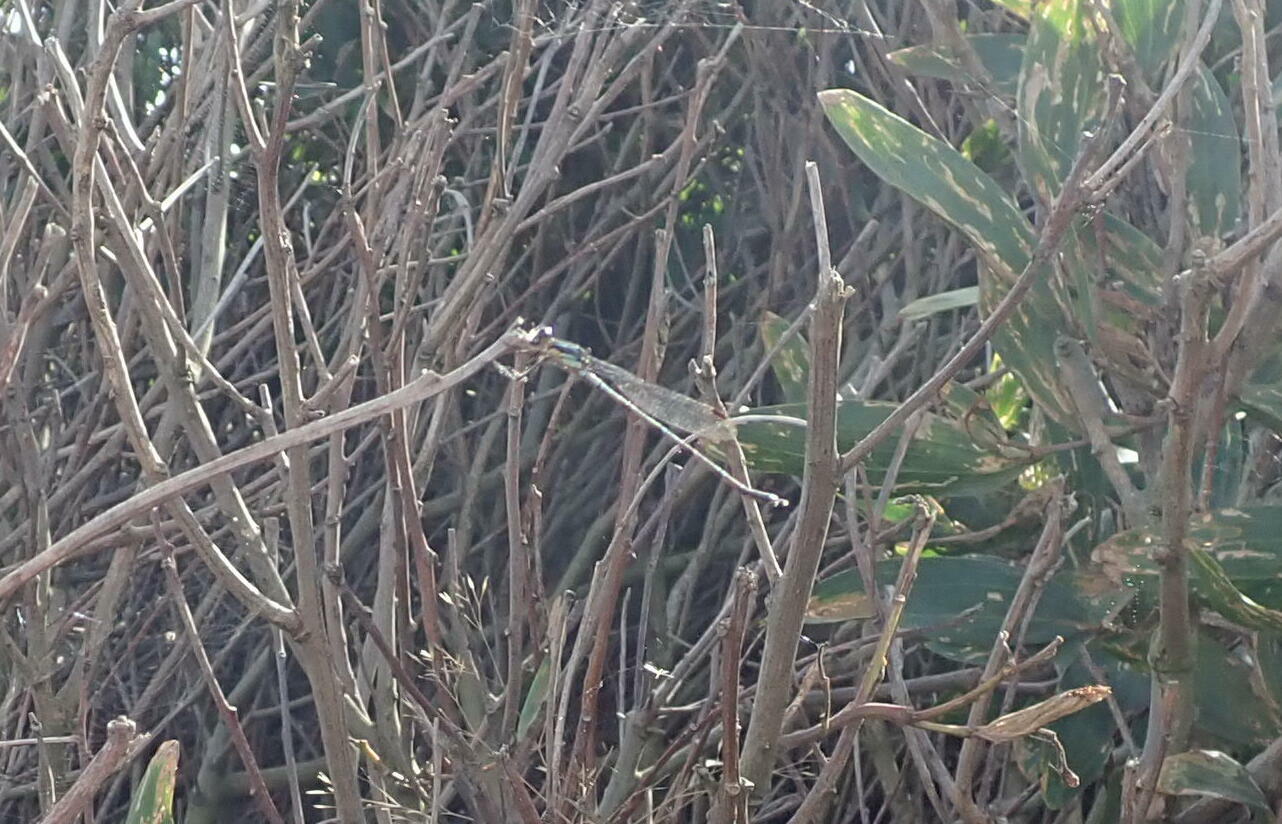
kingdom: Animalia
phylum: Arthropoda
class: Insecta
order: Odonata
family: Lestidae
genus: Austrolestes
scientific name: Austrolestes colensonis
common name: Blue damselfly
